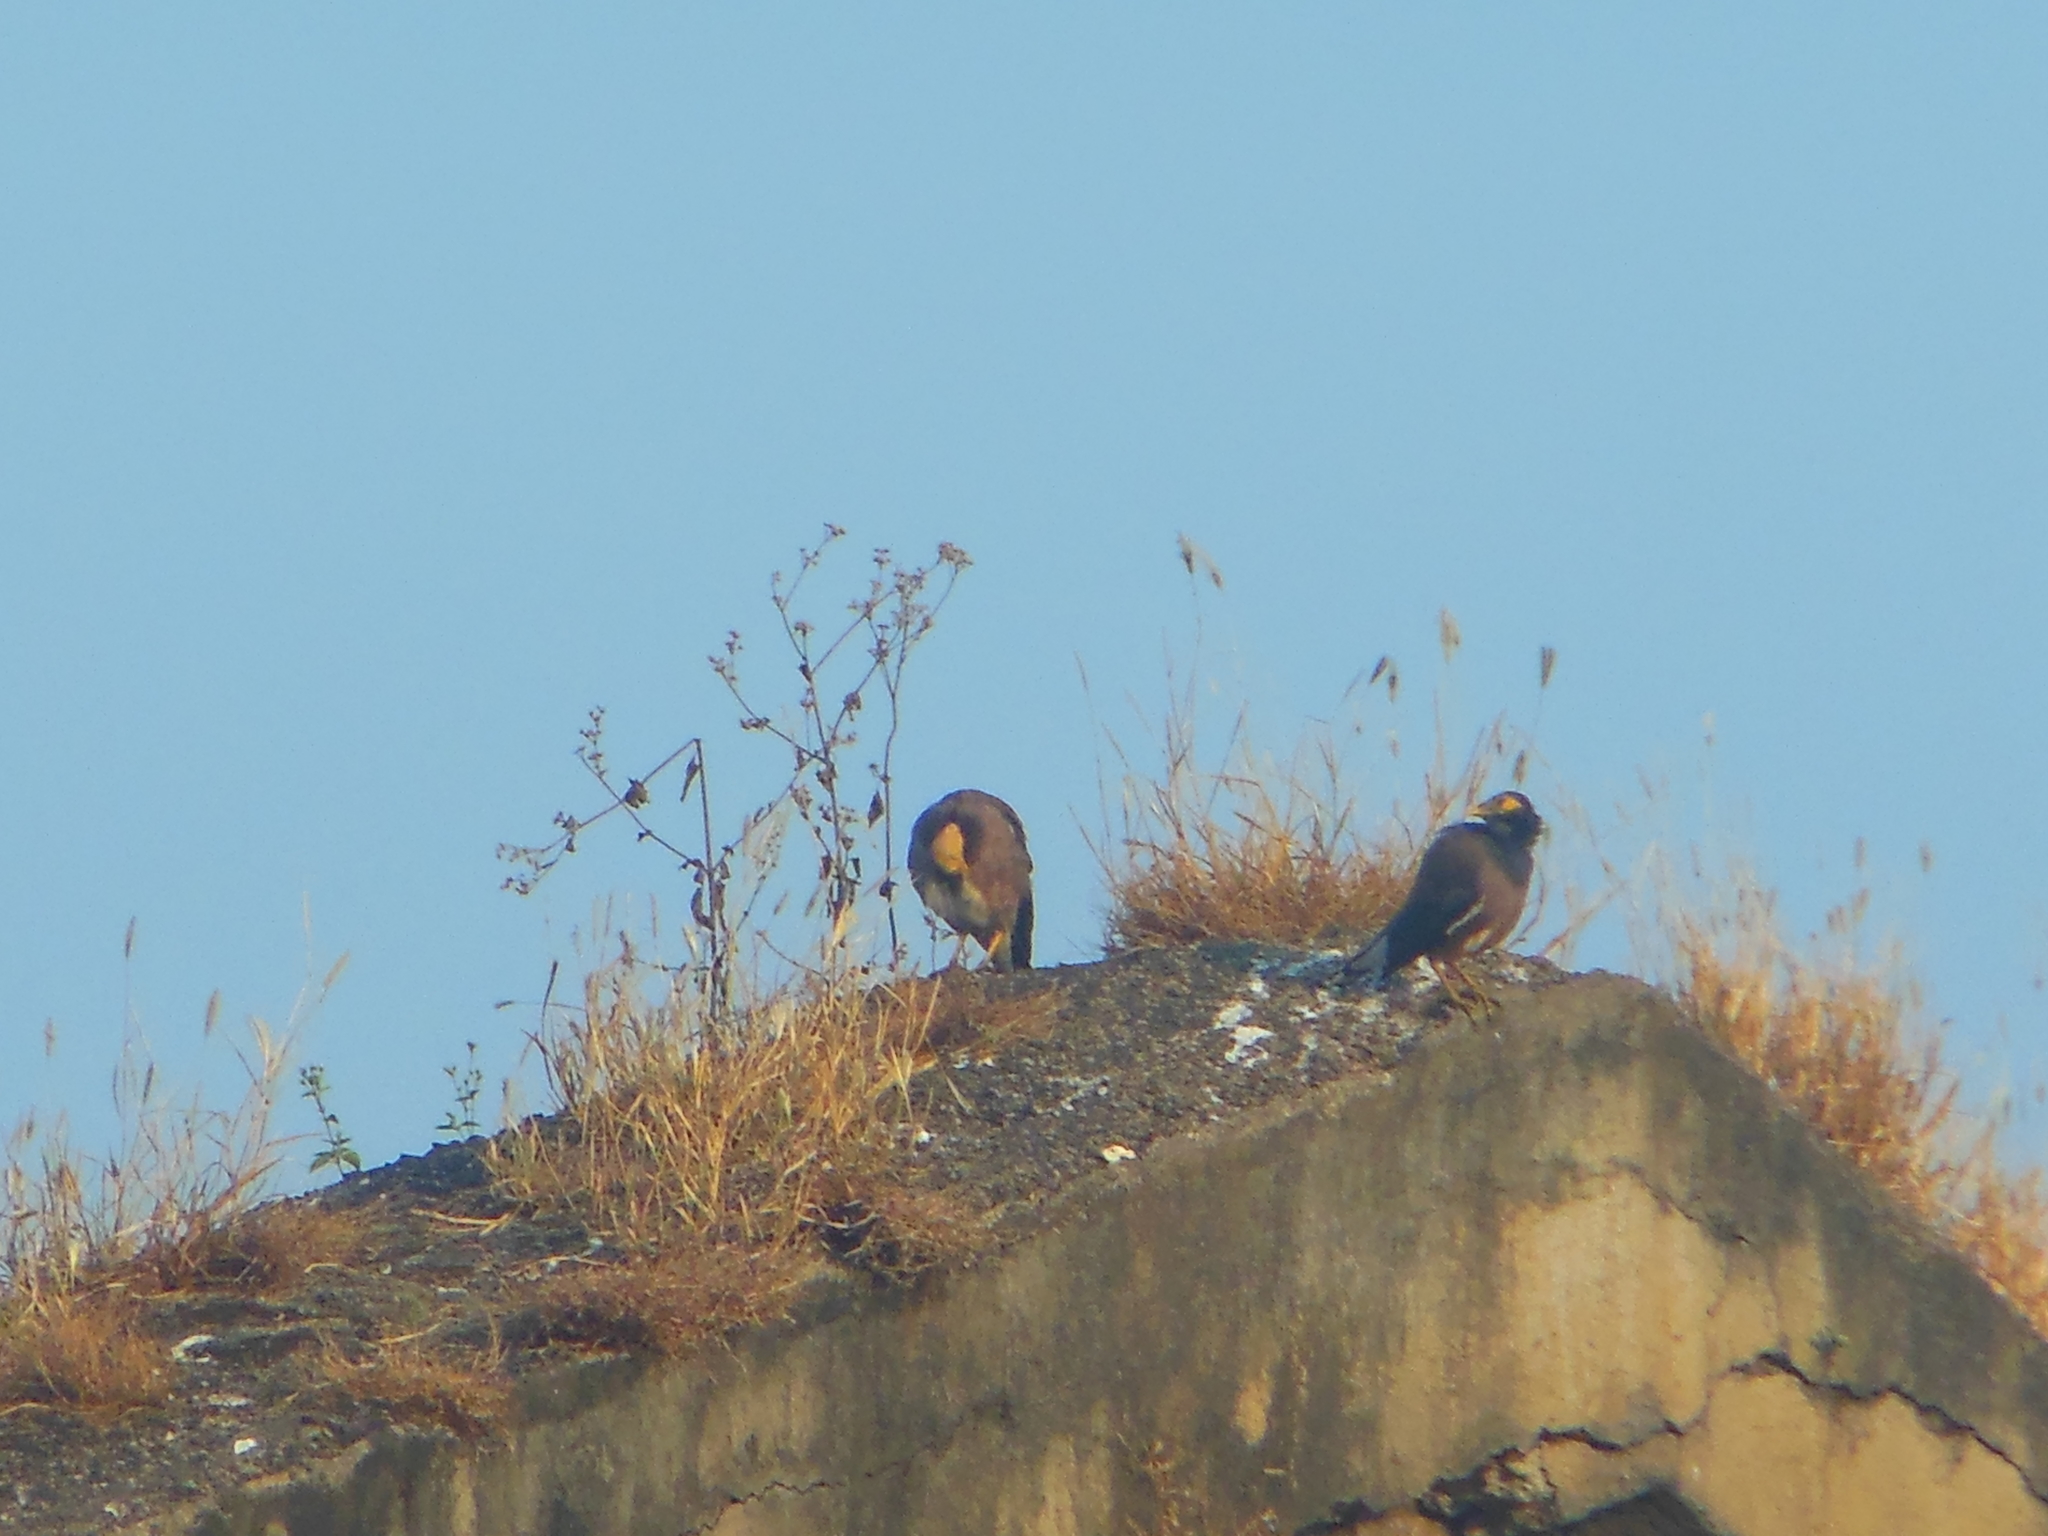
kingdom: Animalia
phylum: Chordata
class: Aves
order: Passeriformes
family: Sturnidae
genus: Acridotheres
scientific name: Acridotheres tristis
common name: Common myna
